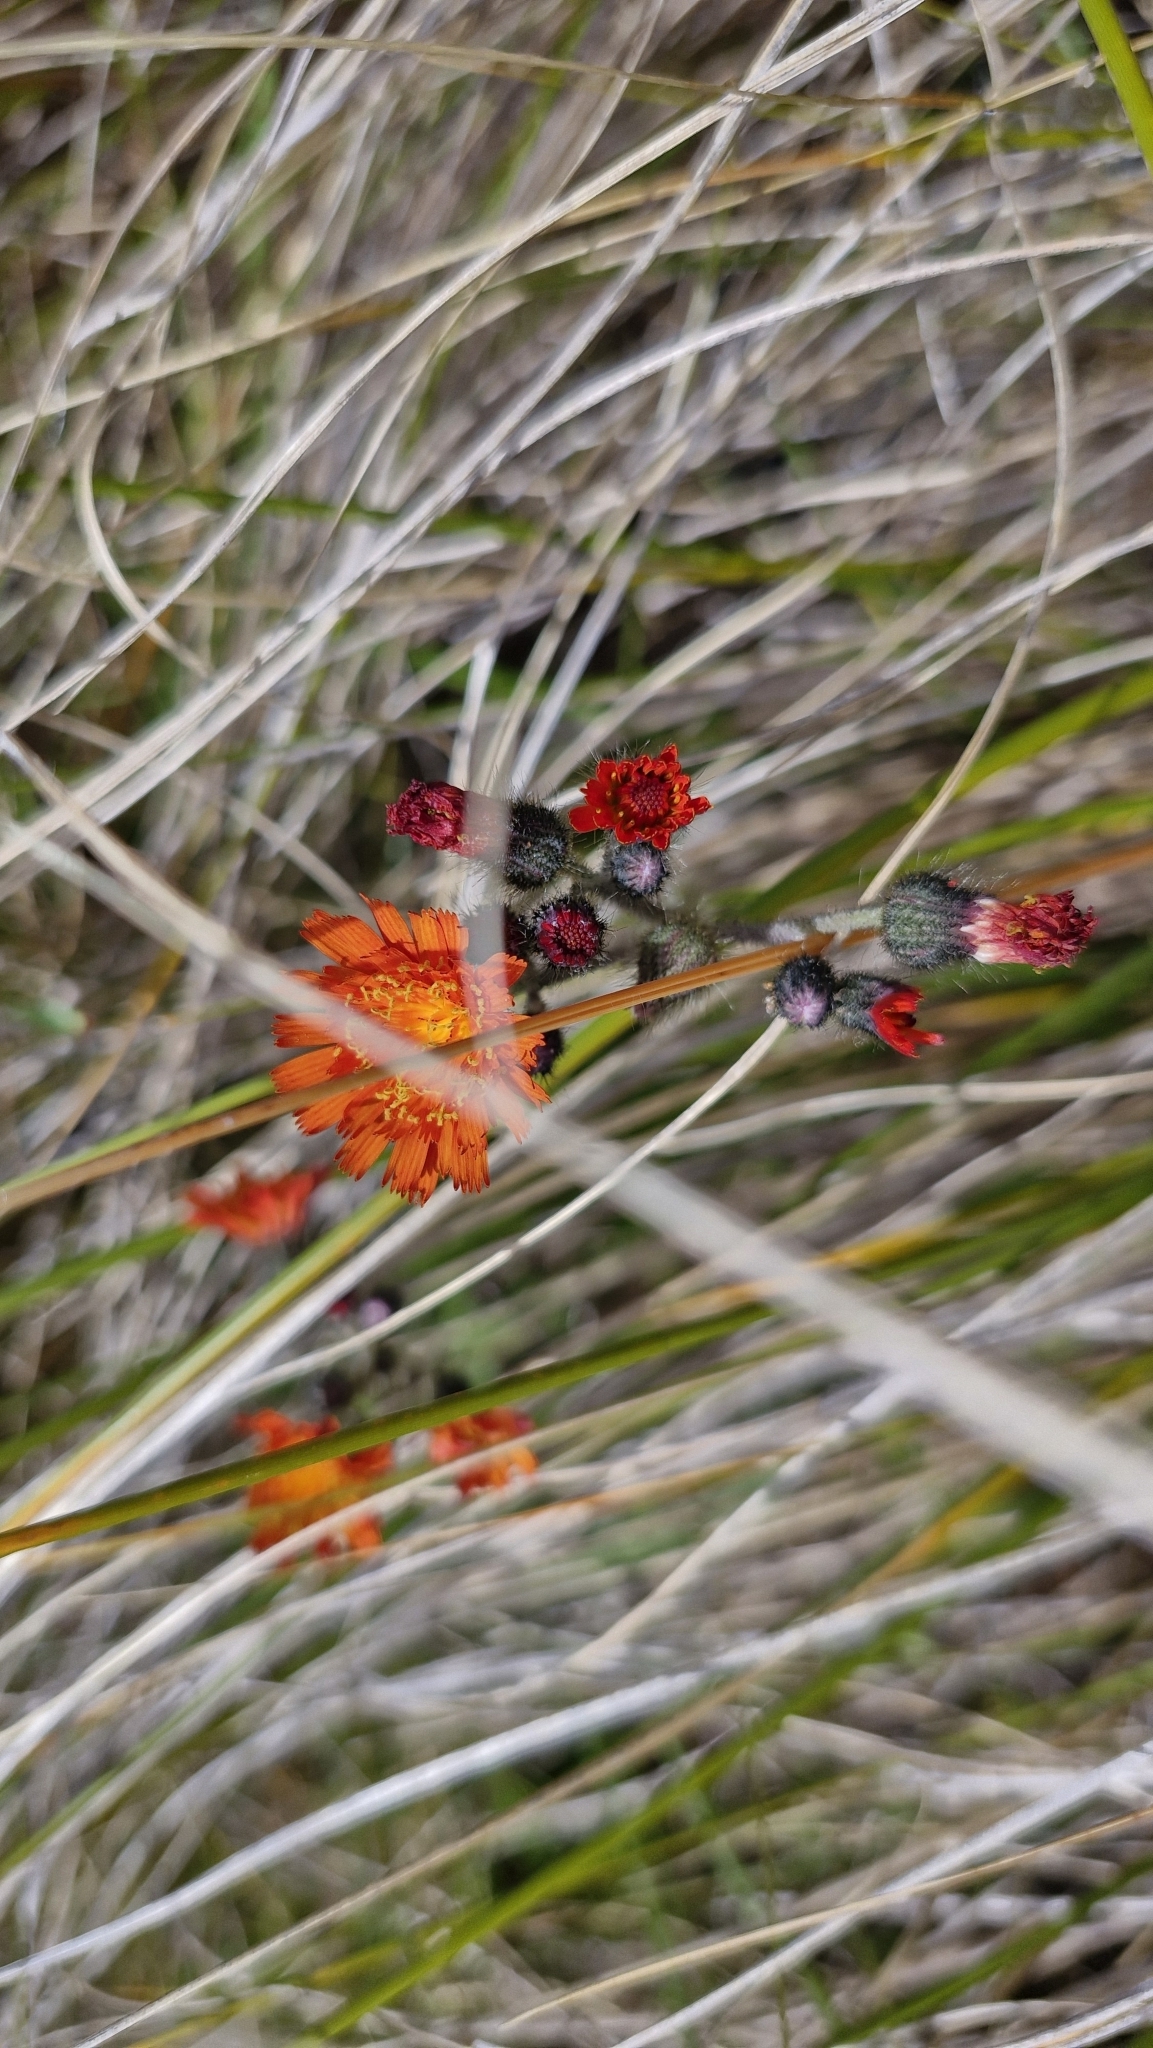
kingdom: Plantae
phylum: Tracheophyta
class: Magnoliopsida
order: Asterales
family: Asteraceae
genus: Pilosella
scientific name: Pilosella aurantiaca
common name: Fox-and-cubs
